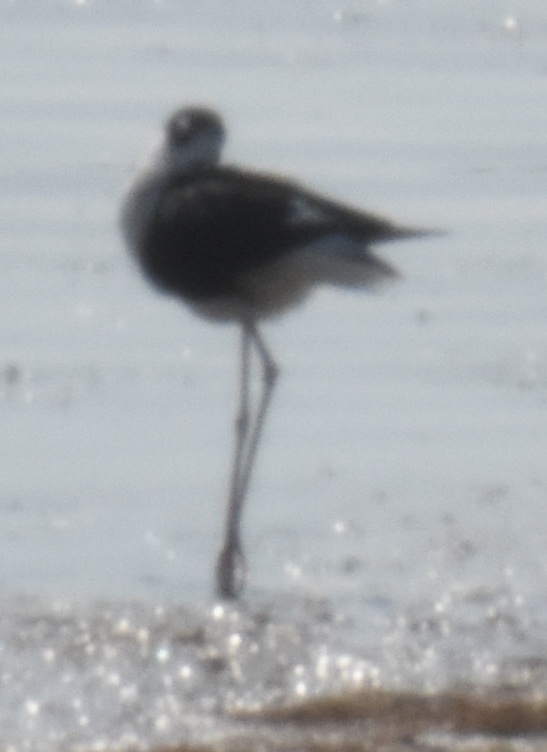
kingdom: Animalia
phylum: Chordata
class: Aves
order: Charadriiformes
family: Recurvirostridae
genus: Himantopus
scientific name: Himantopus mexicanus
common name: Black-necked stilt
